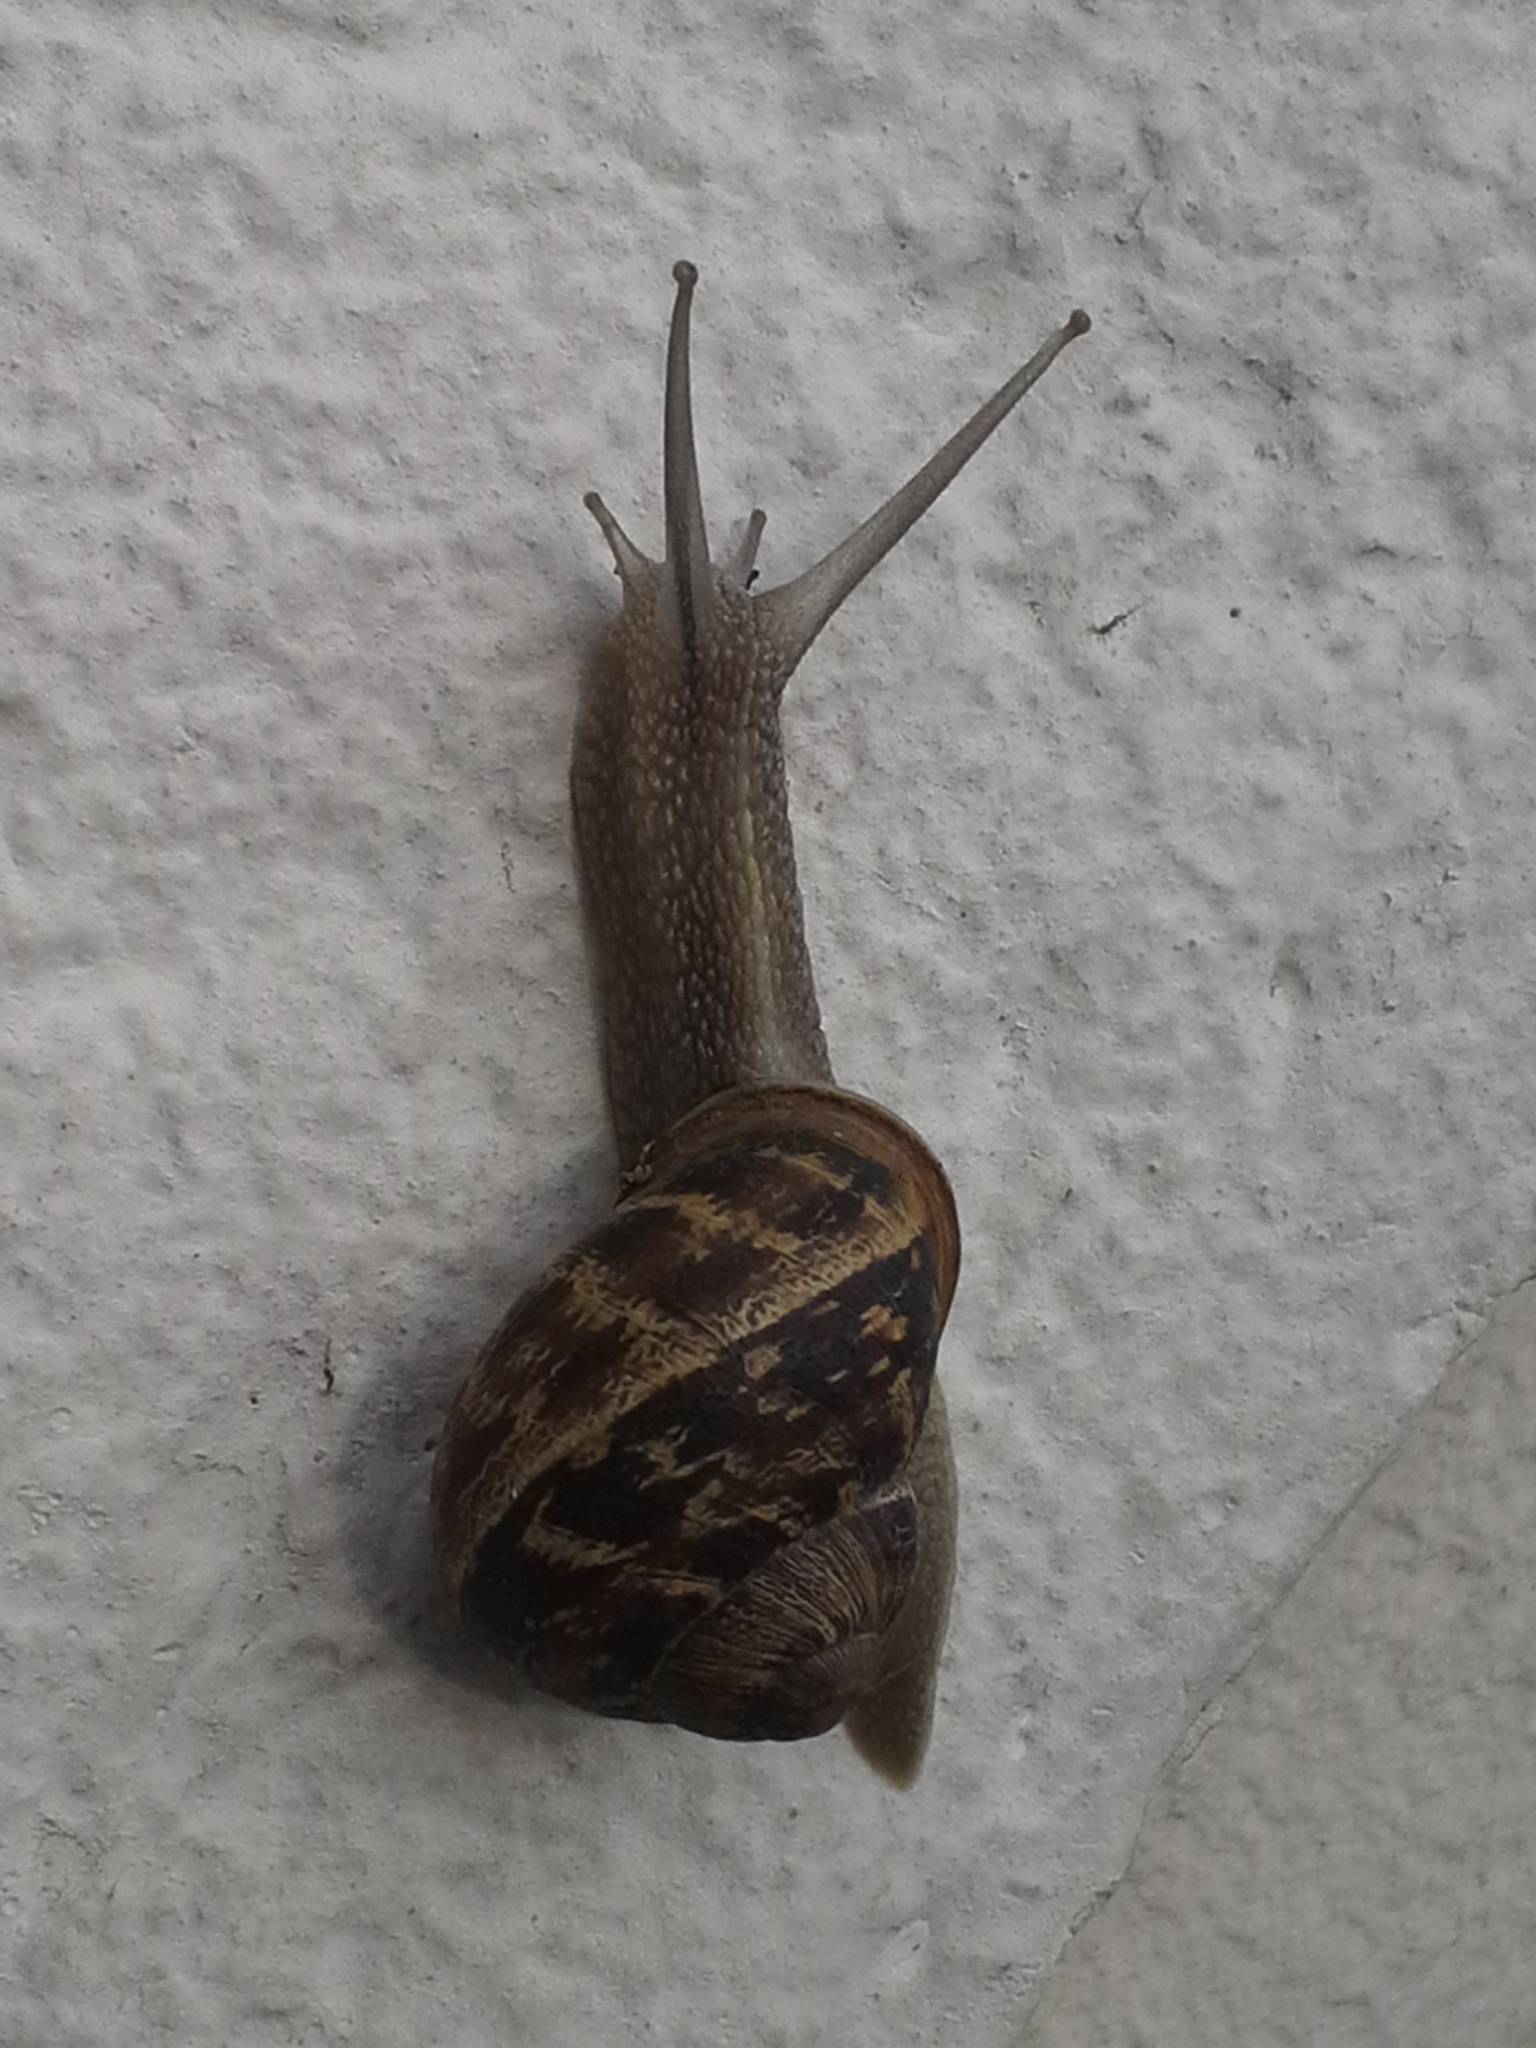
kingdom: Animalia
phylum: Mollusca
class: Gastropoda
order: Stylommatophora
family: Helicidae
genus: Cornu
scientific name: Cornu aspersum
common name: Brown garden snail
